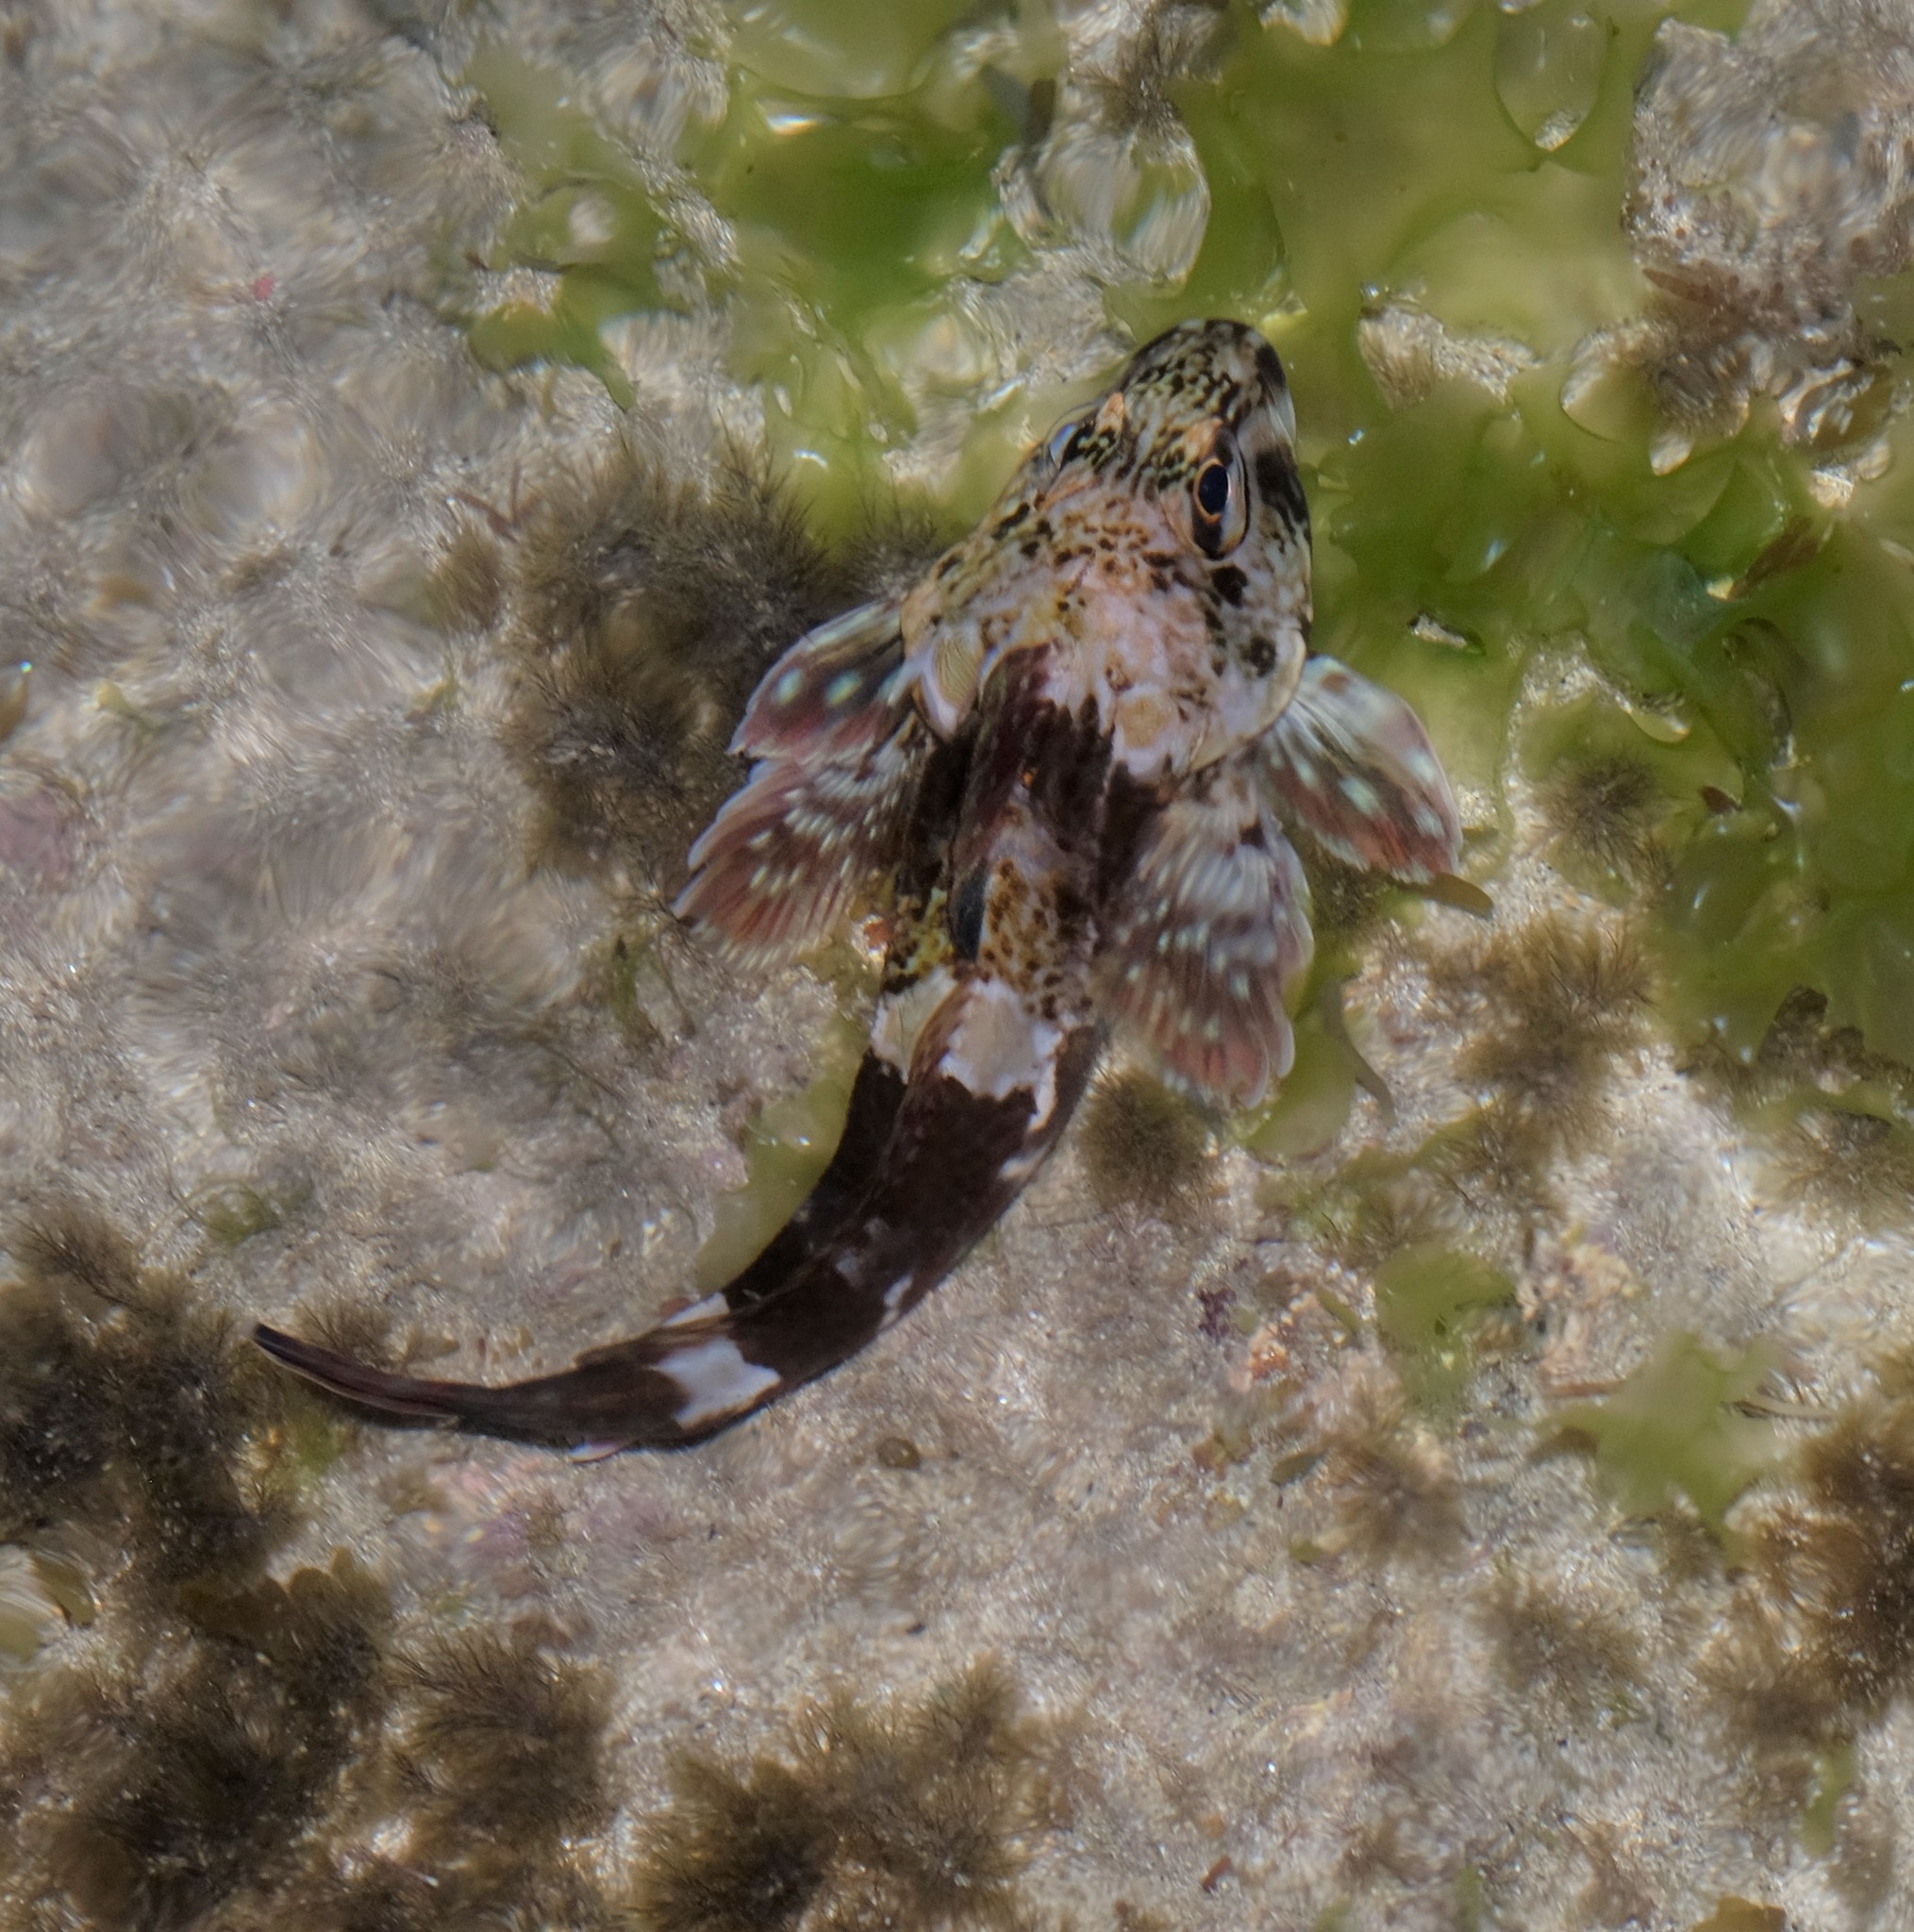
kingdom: Animalia
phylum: Chordata
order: Perciformes
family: Bovichtidae
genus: Bovichtus
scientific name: Bovichtus angustifrons
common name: Dragonet
